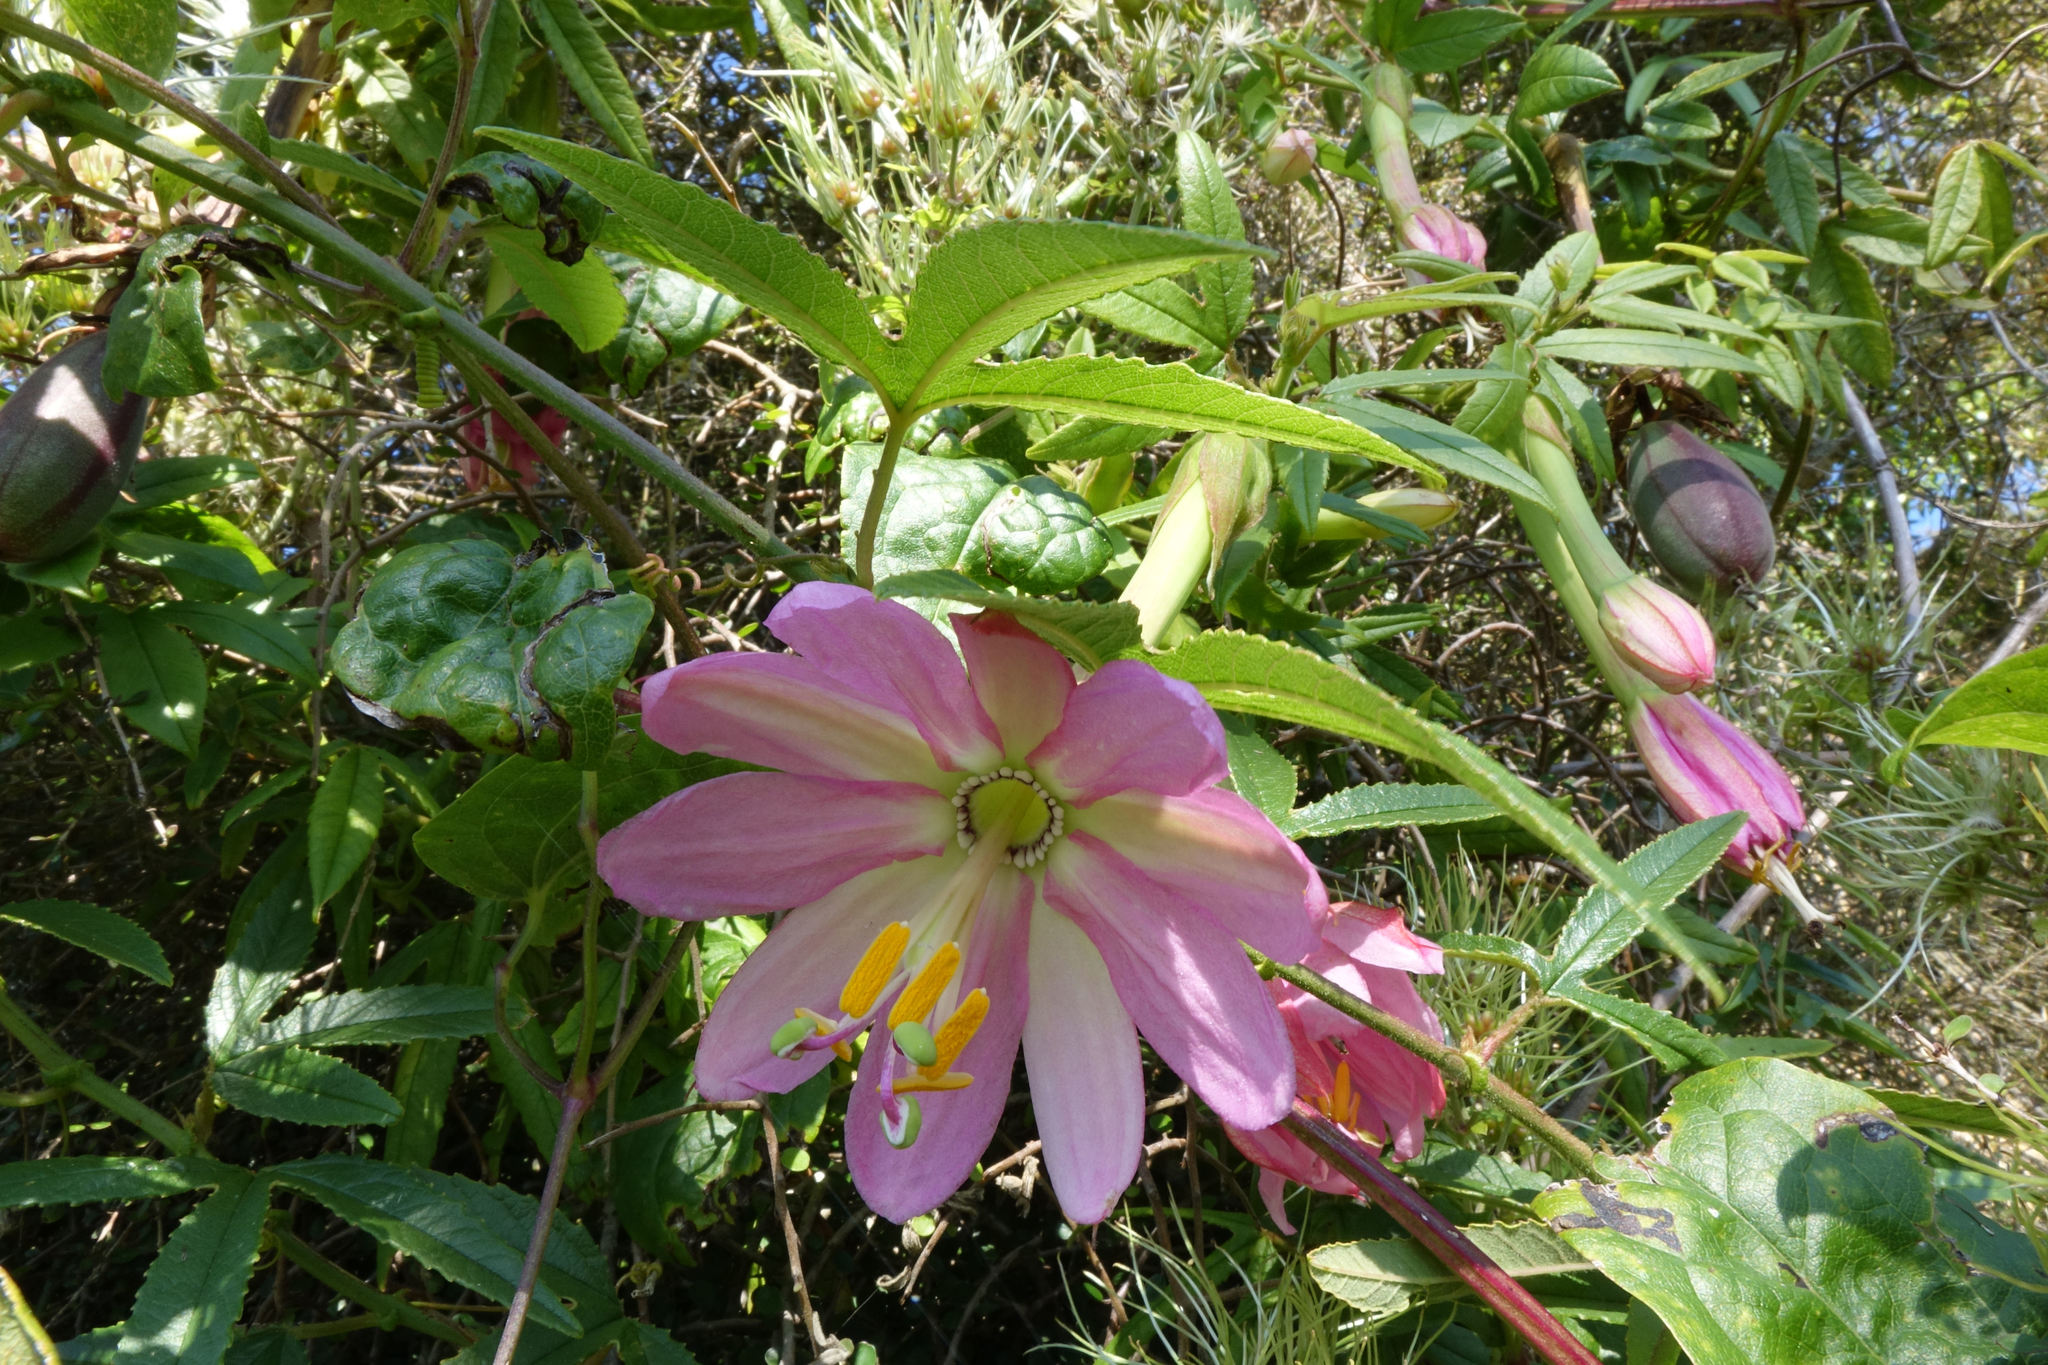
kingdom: Plantae
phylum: Tracheophyta
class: Magnoliopsida
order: Malpighiales
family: Passifloraceae
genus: Passiflora
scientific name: Passiflora tripartita
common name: Banana poka
